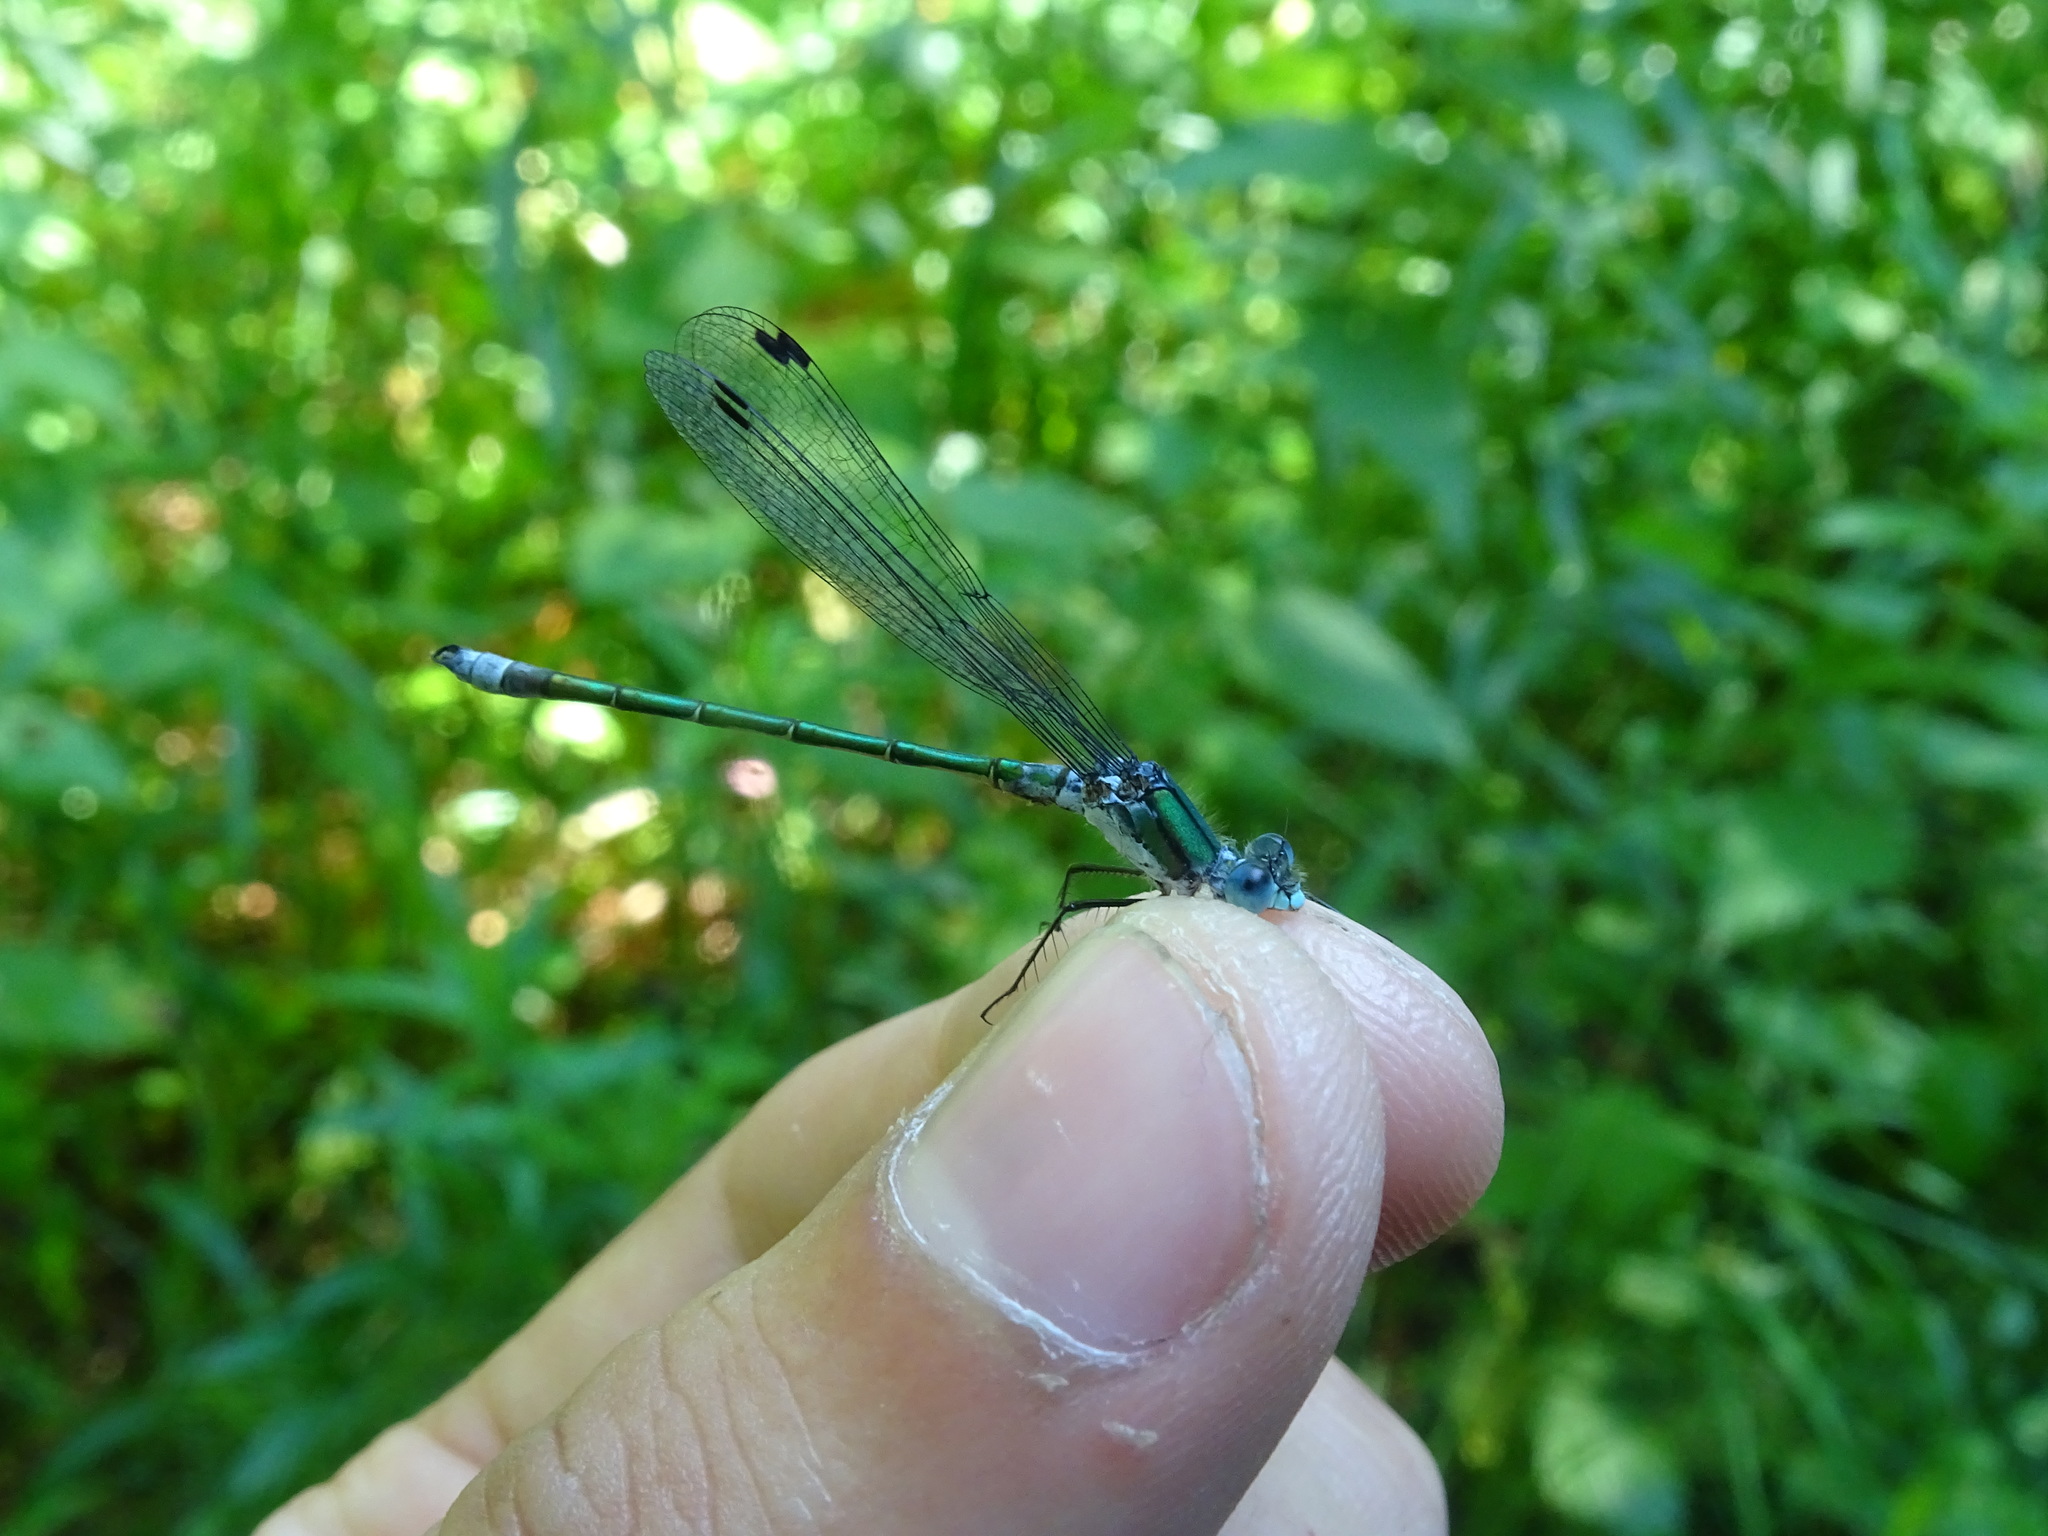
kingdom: Animalia
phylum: Arthropoda
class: Insecta
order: Odonata
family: Lestidae
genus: Lestes
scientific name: Lestes dryas
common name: Scarce emerald damselfly
